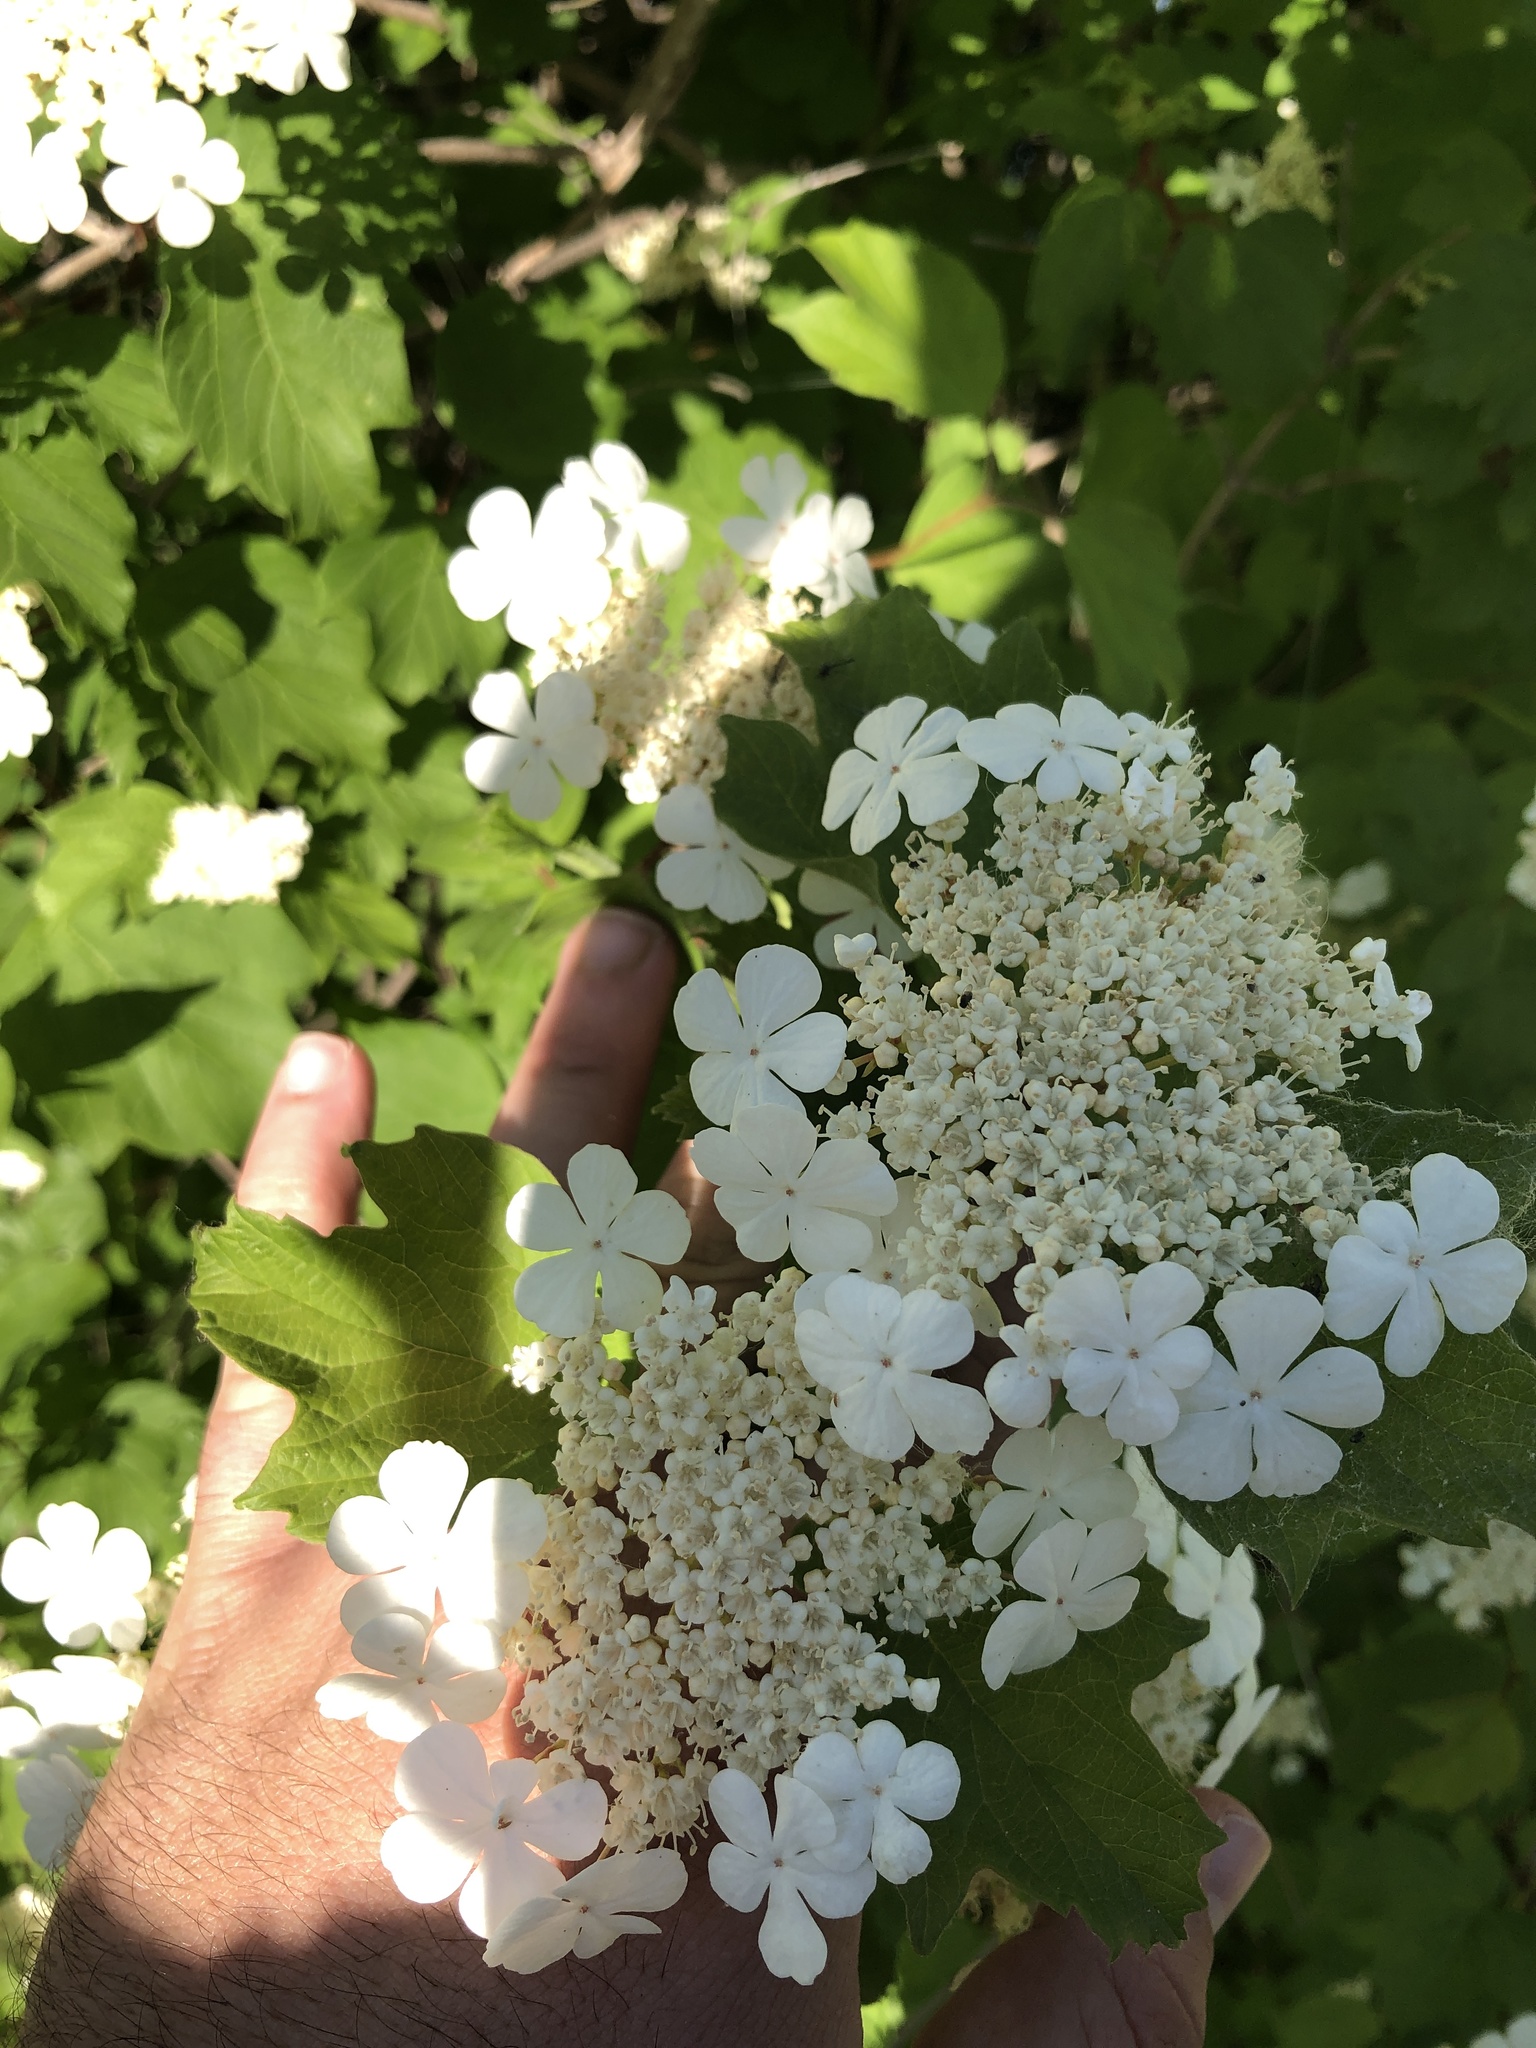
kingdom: Plantae
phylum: Tracheophyta
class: Magnoliopsida
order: Dipsacales
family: Viburnaceae
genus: Viburnum
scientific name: Viburnum opulus
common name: Guelder-rose
